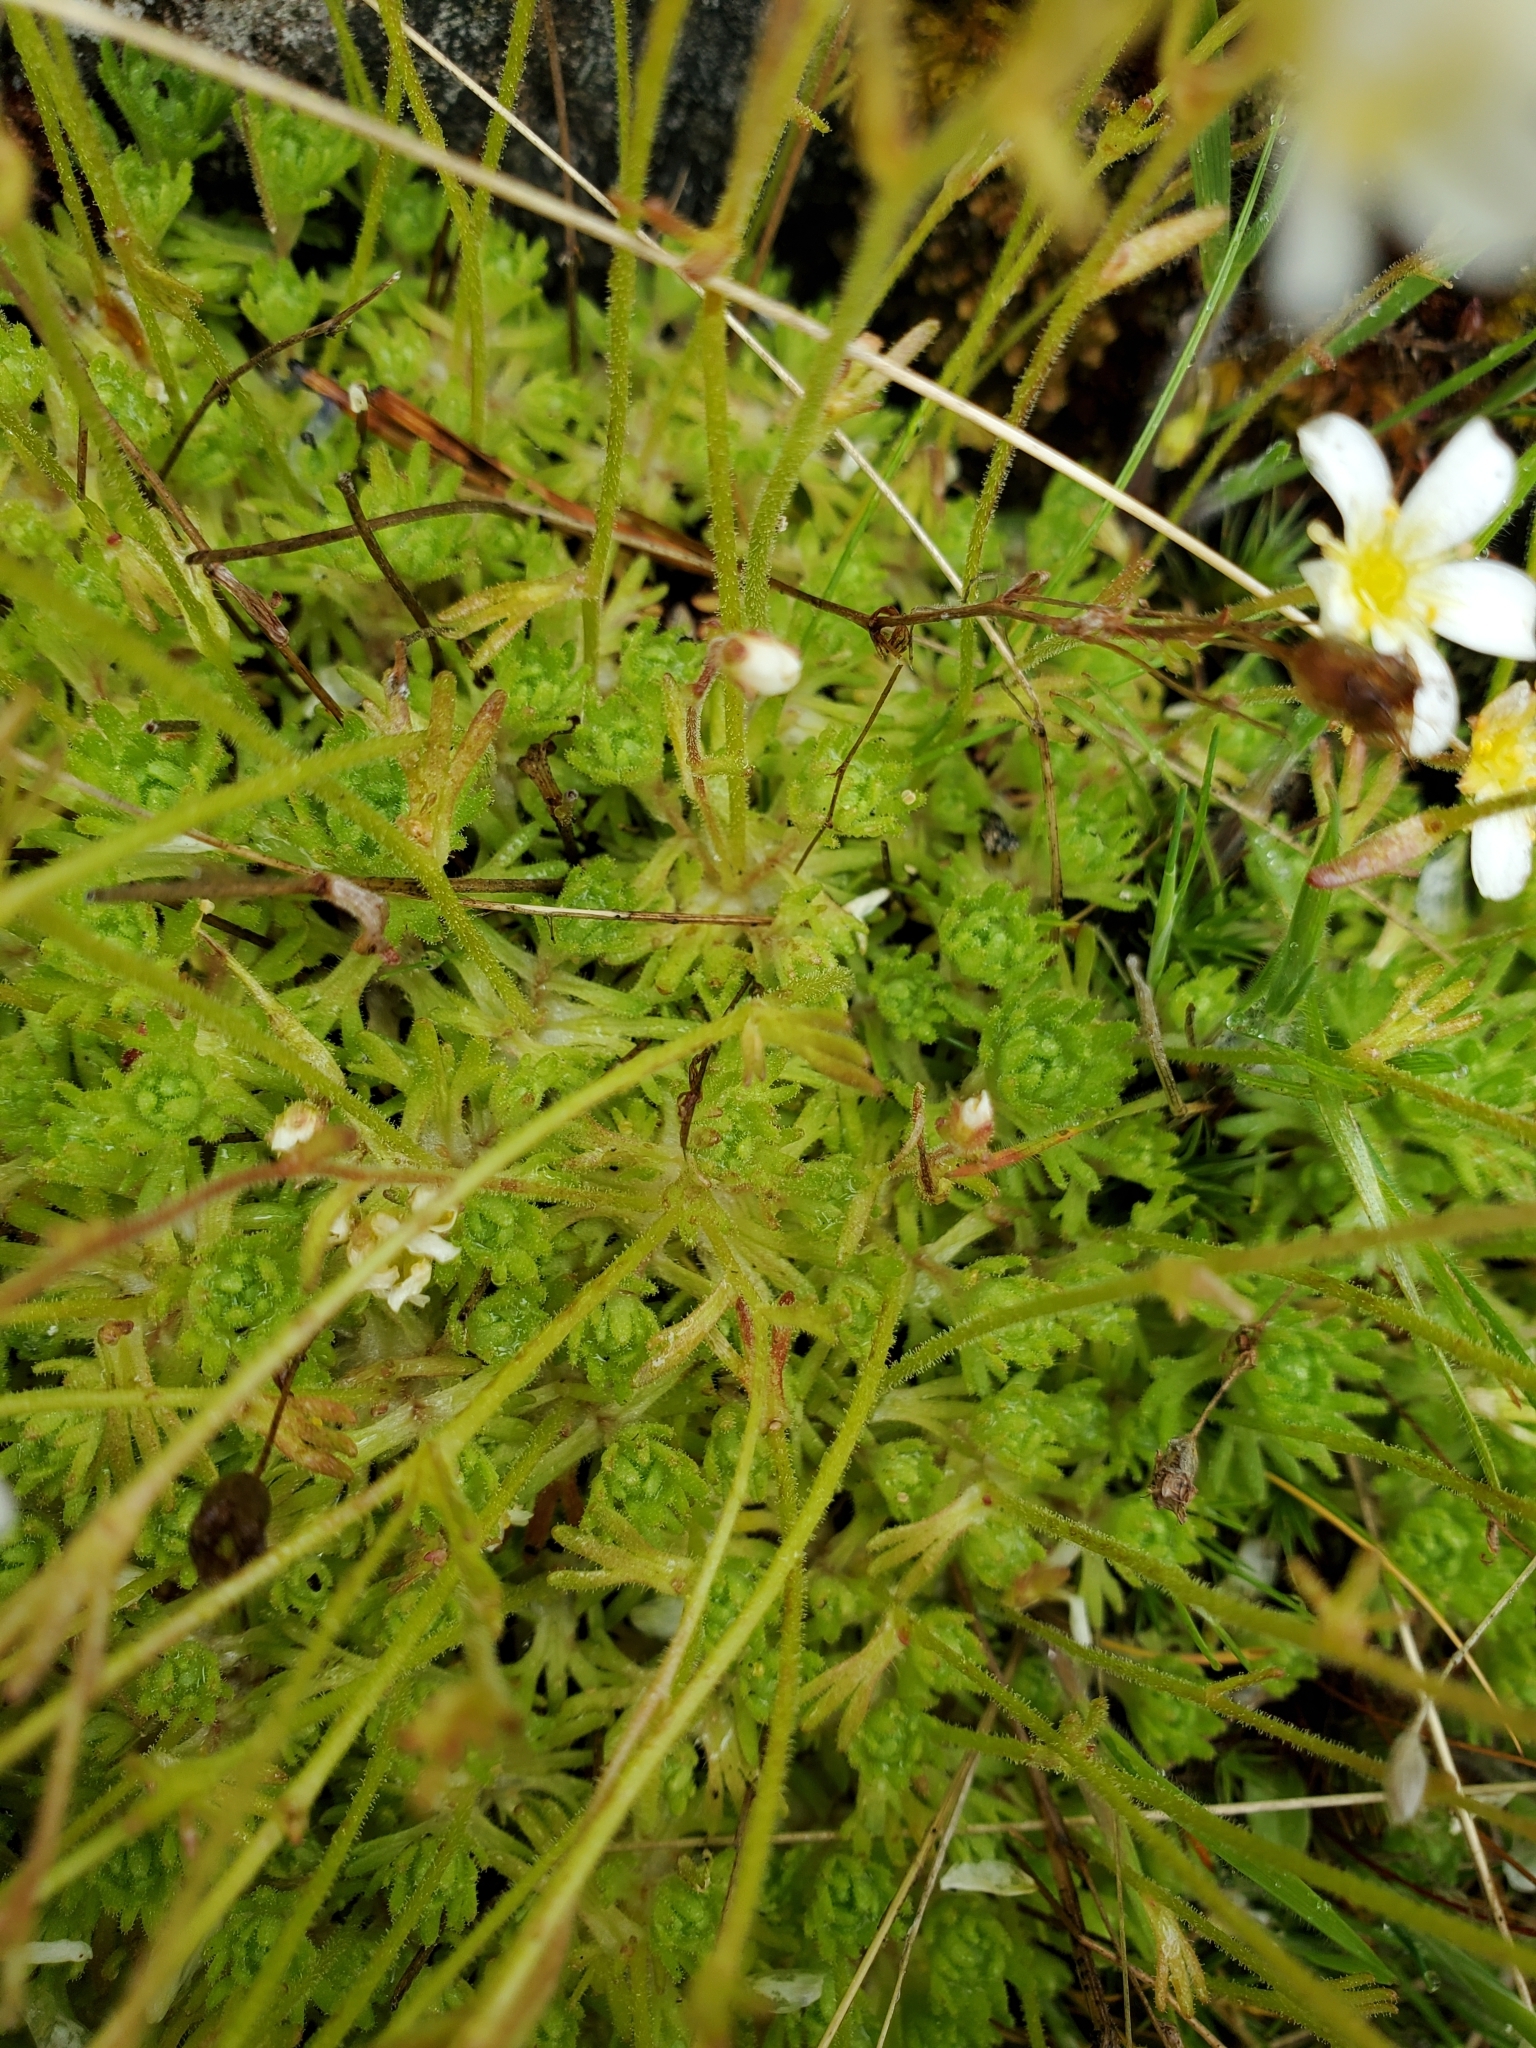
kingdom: Plantae
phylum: Tracheophyta
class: Magnoliopsida
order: Saxifragales
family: Saxifragaceae
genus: Saxifraga
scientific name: Saxifraga cespitosa
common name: Tufted saxifrage
